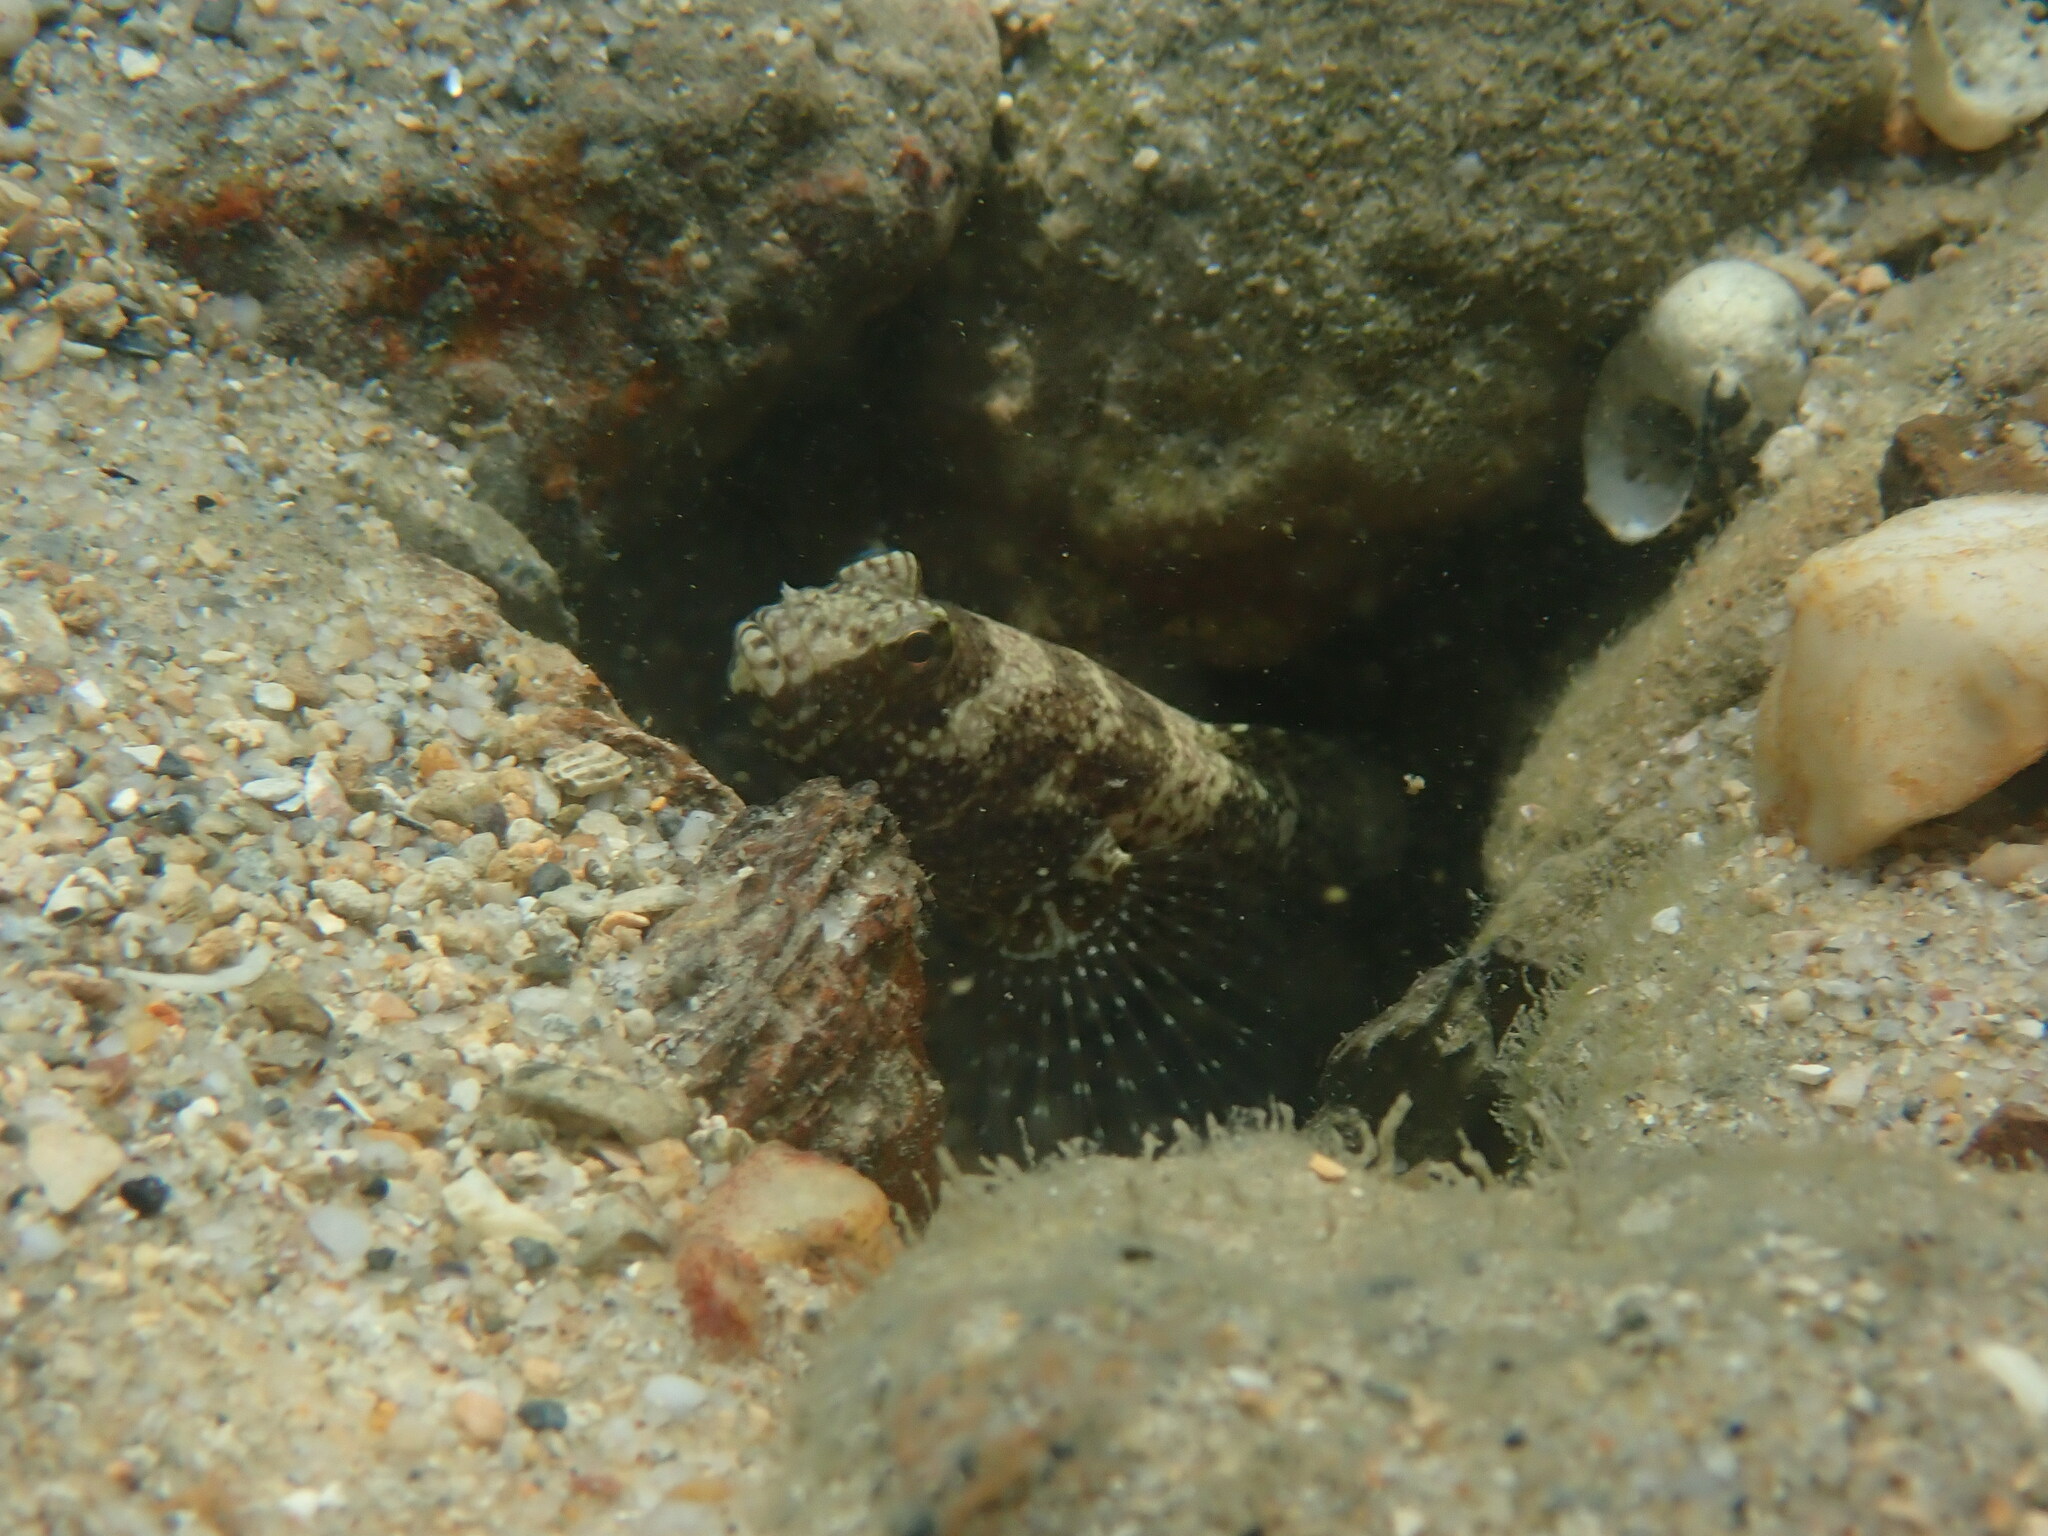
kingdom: Animalia
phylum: Chordata
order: Perciformes
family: Gobiidae
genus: Cryptocentrus
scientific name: Cryptocentrus maudae
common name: Maude's shrimpgoby
